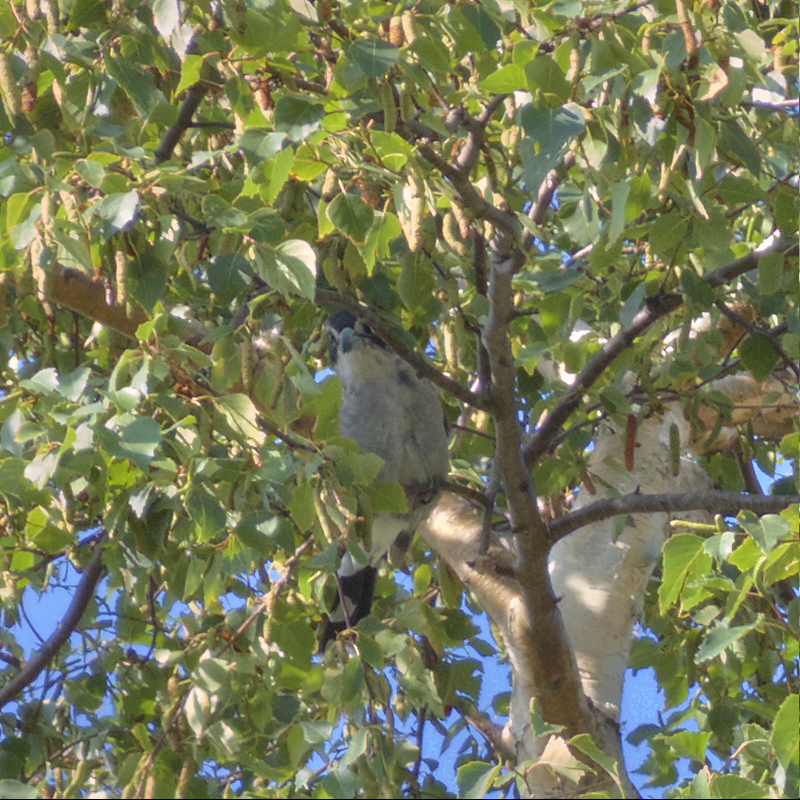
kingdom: Animalia
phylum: Chordata
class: Aves
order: Passeriformes
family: Cracticidae
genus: Cracticus
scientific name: Cracticus torquatus
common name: Grey butcherbird
